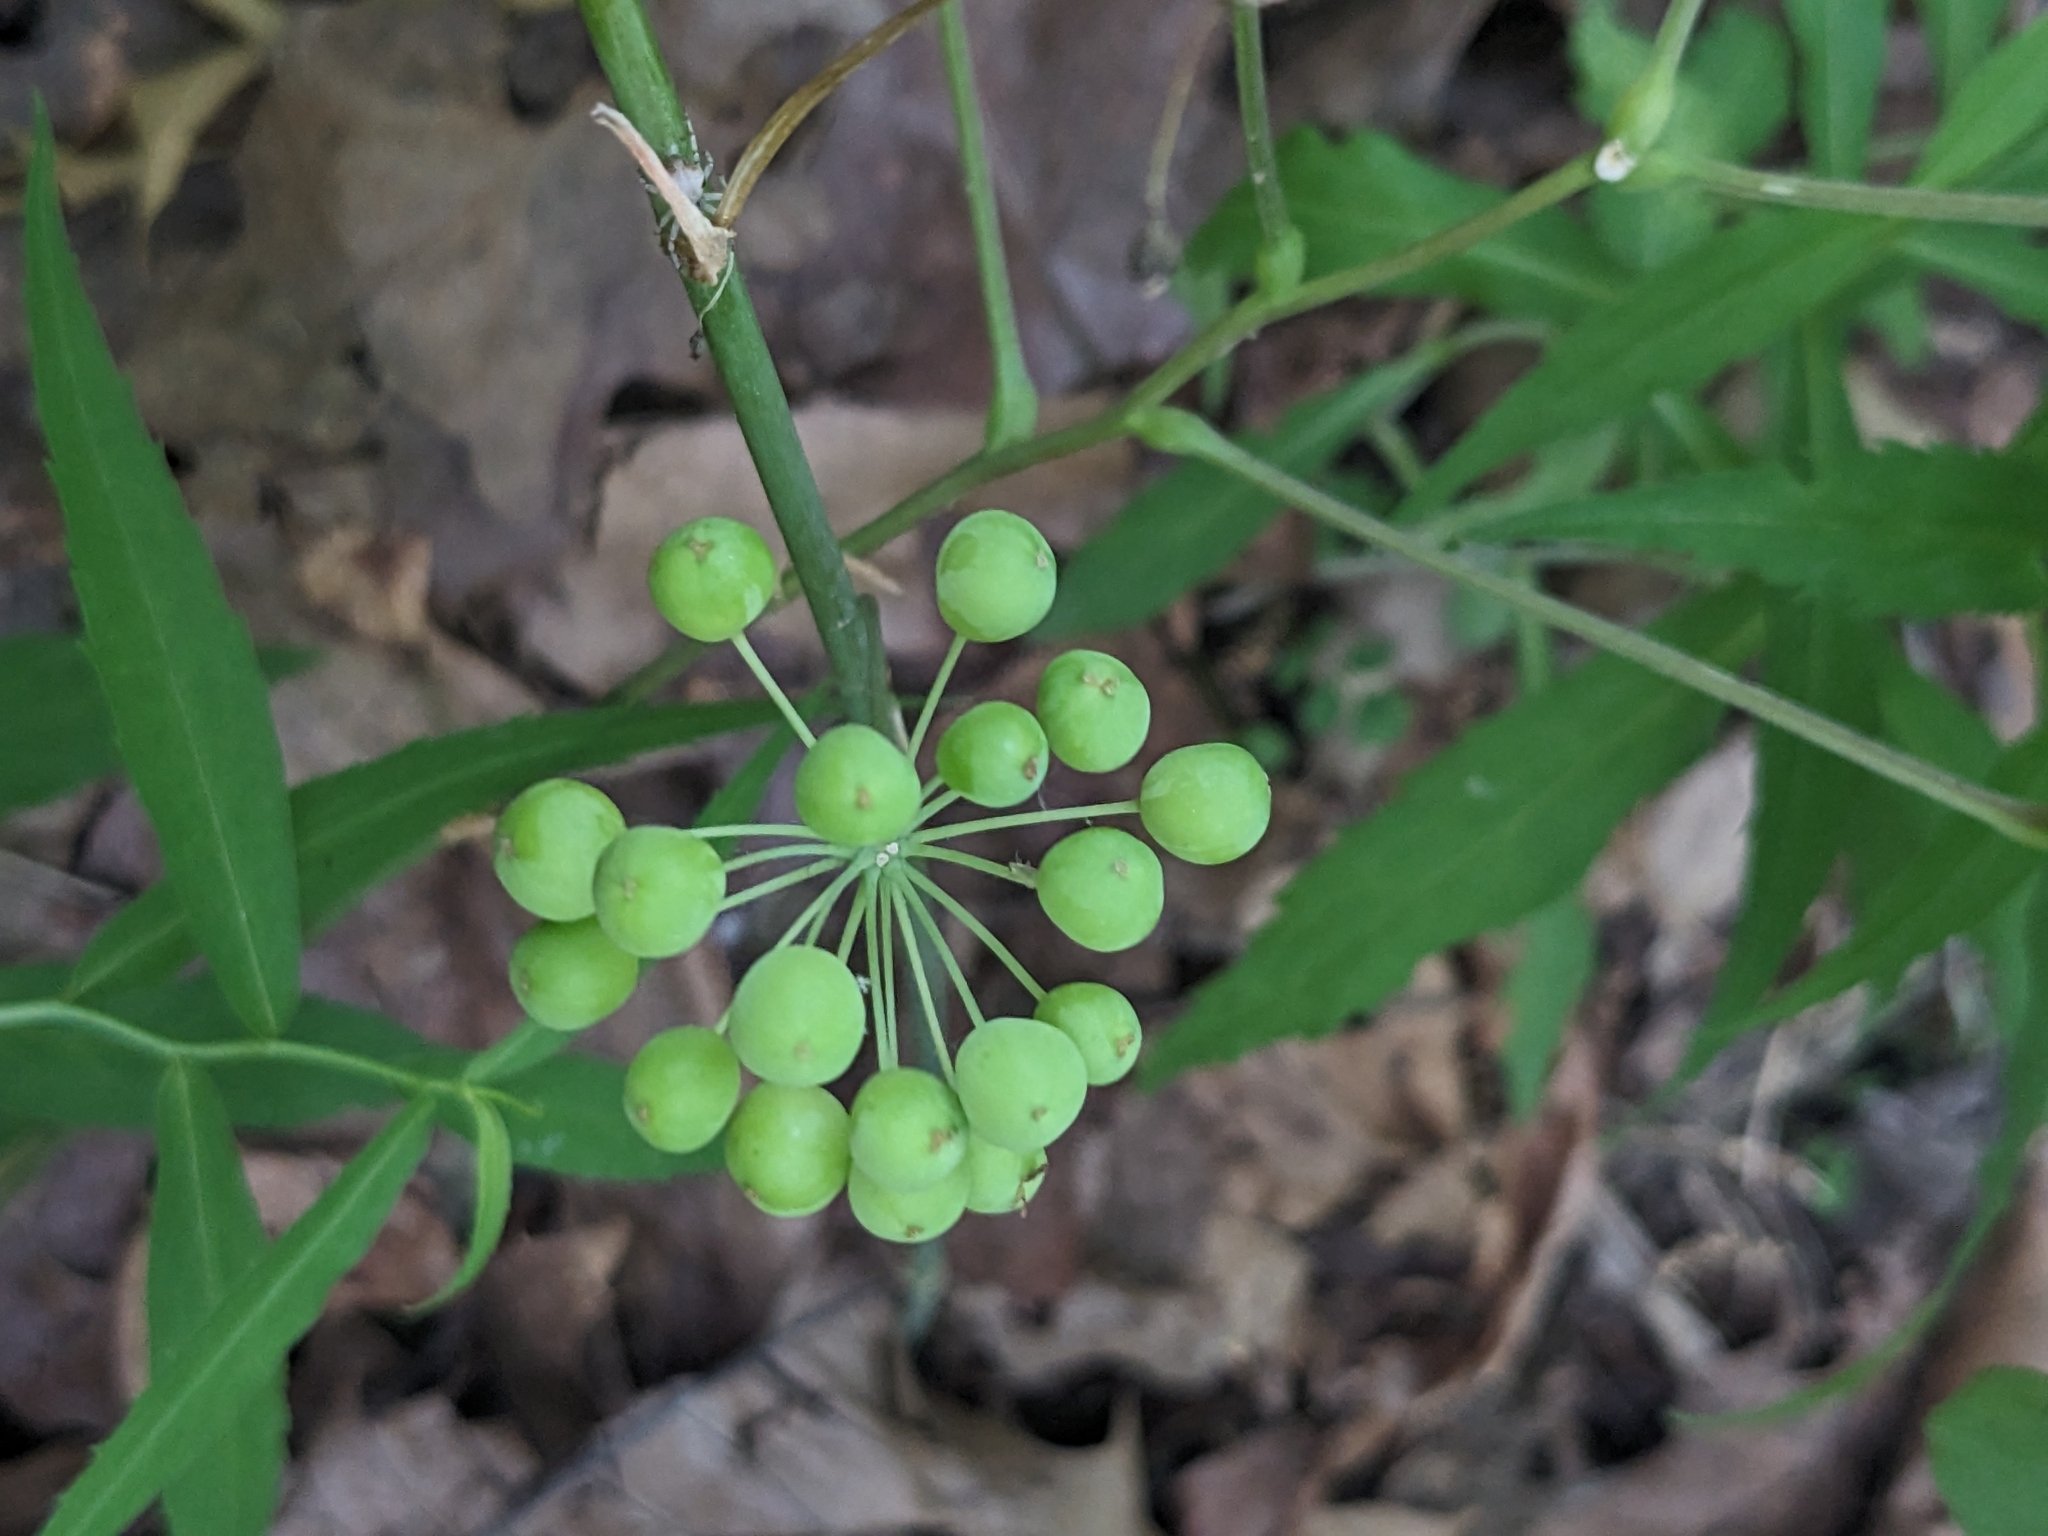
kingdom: Plantae
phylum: Tracheophyta
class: Liliopsida
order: Liliales
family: Smilacaceae
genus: Smilax
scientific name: Smilax ecirrhata
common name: Upright carrionflower
